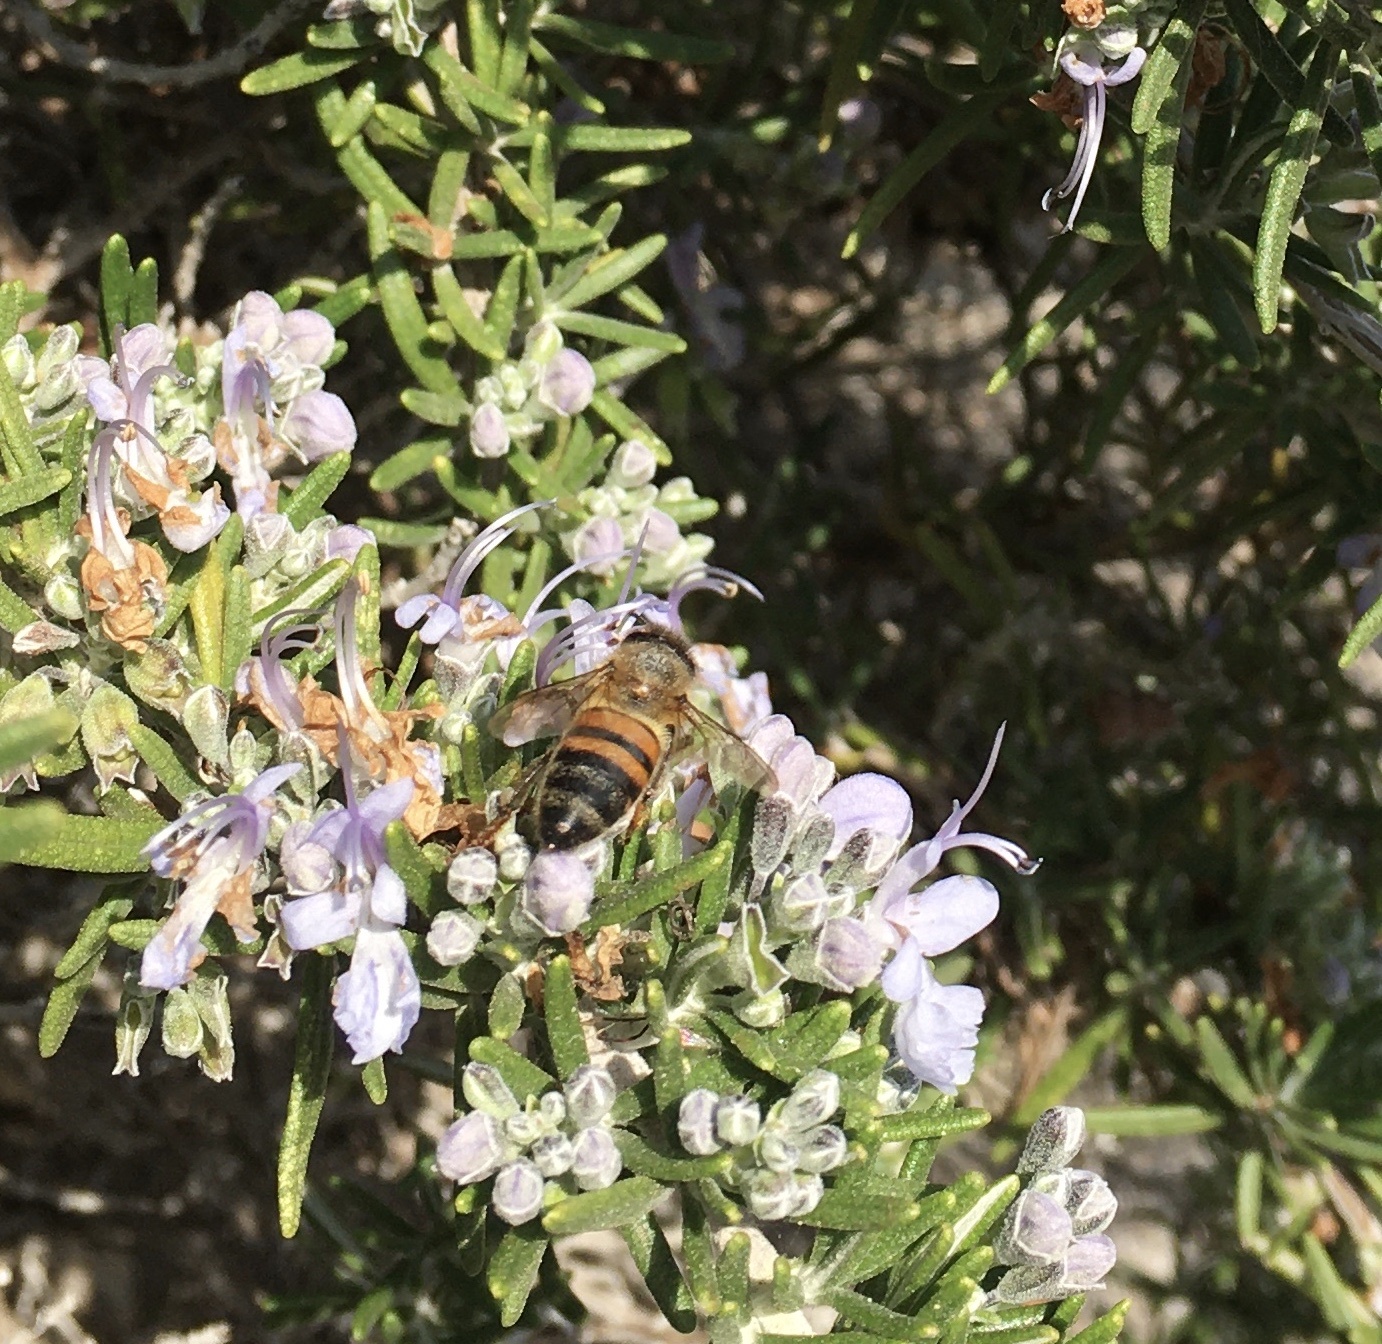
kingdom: Animalia
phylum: Arthropoda
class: Insecta
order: Hymenoptera
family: Apidae
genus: Apis
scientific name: Apis mellifera
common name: Honey bee
